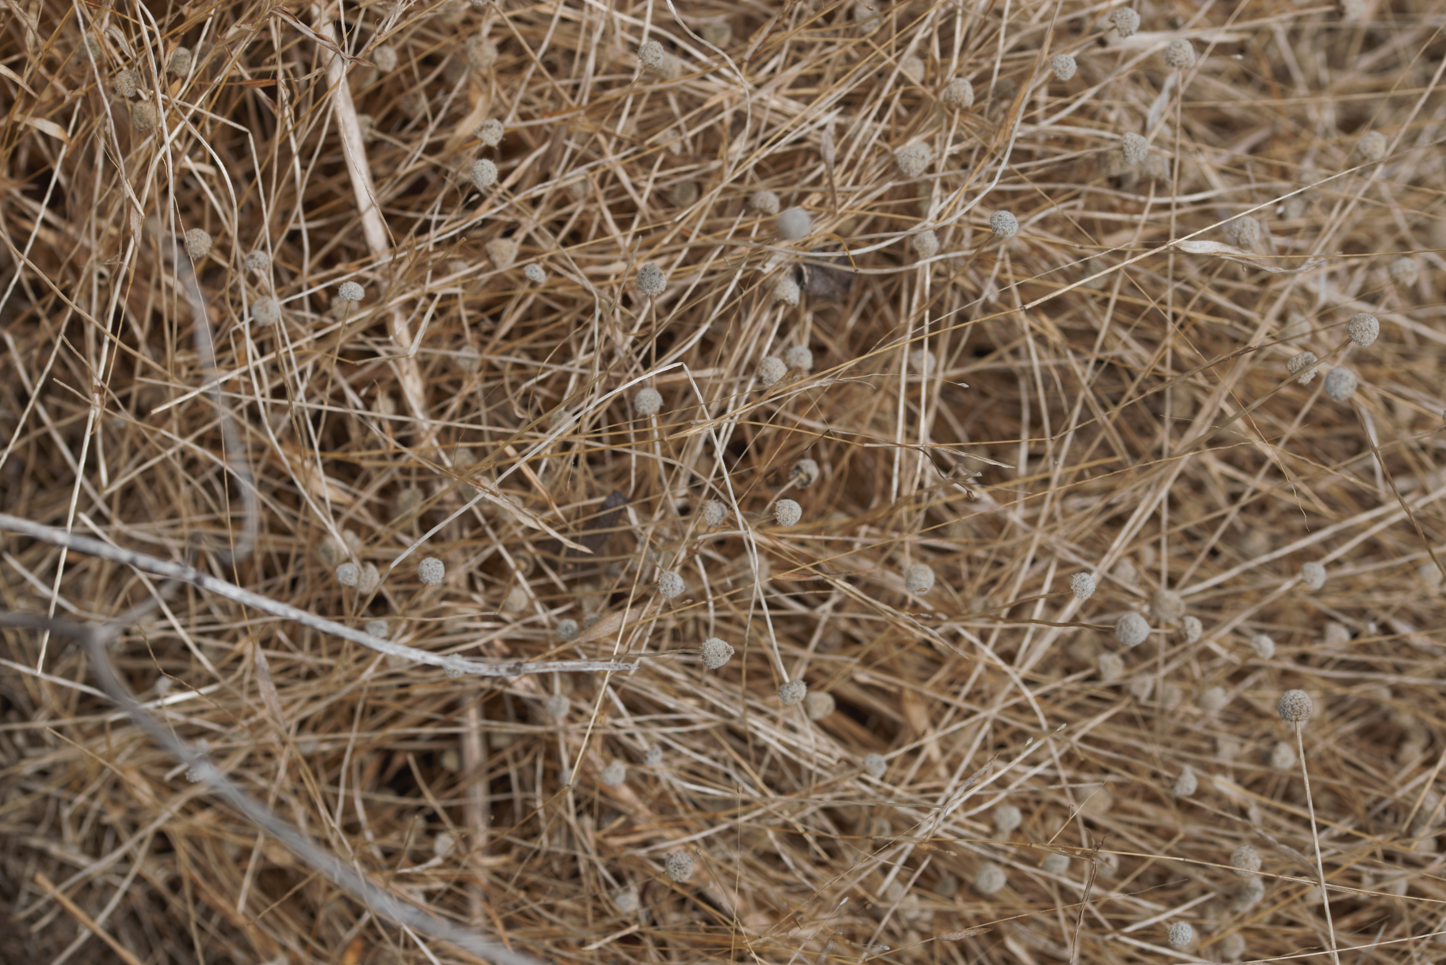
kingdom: Plantae
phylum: Tracheophyta
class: Liliopsida
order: Poales
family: Eriocaulaceae
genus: Paepalanthus
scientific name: Paepalanthus oyapockensis
